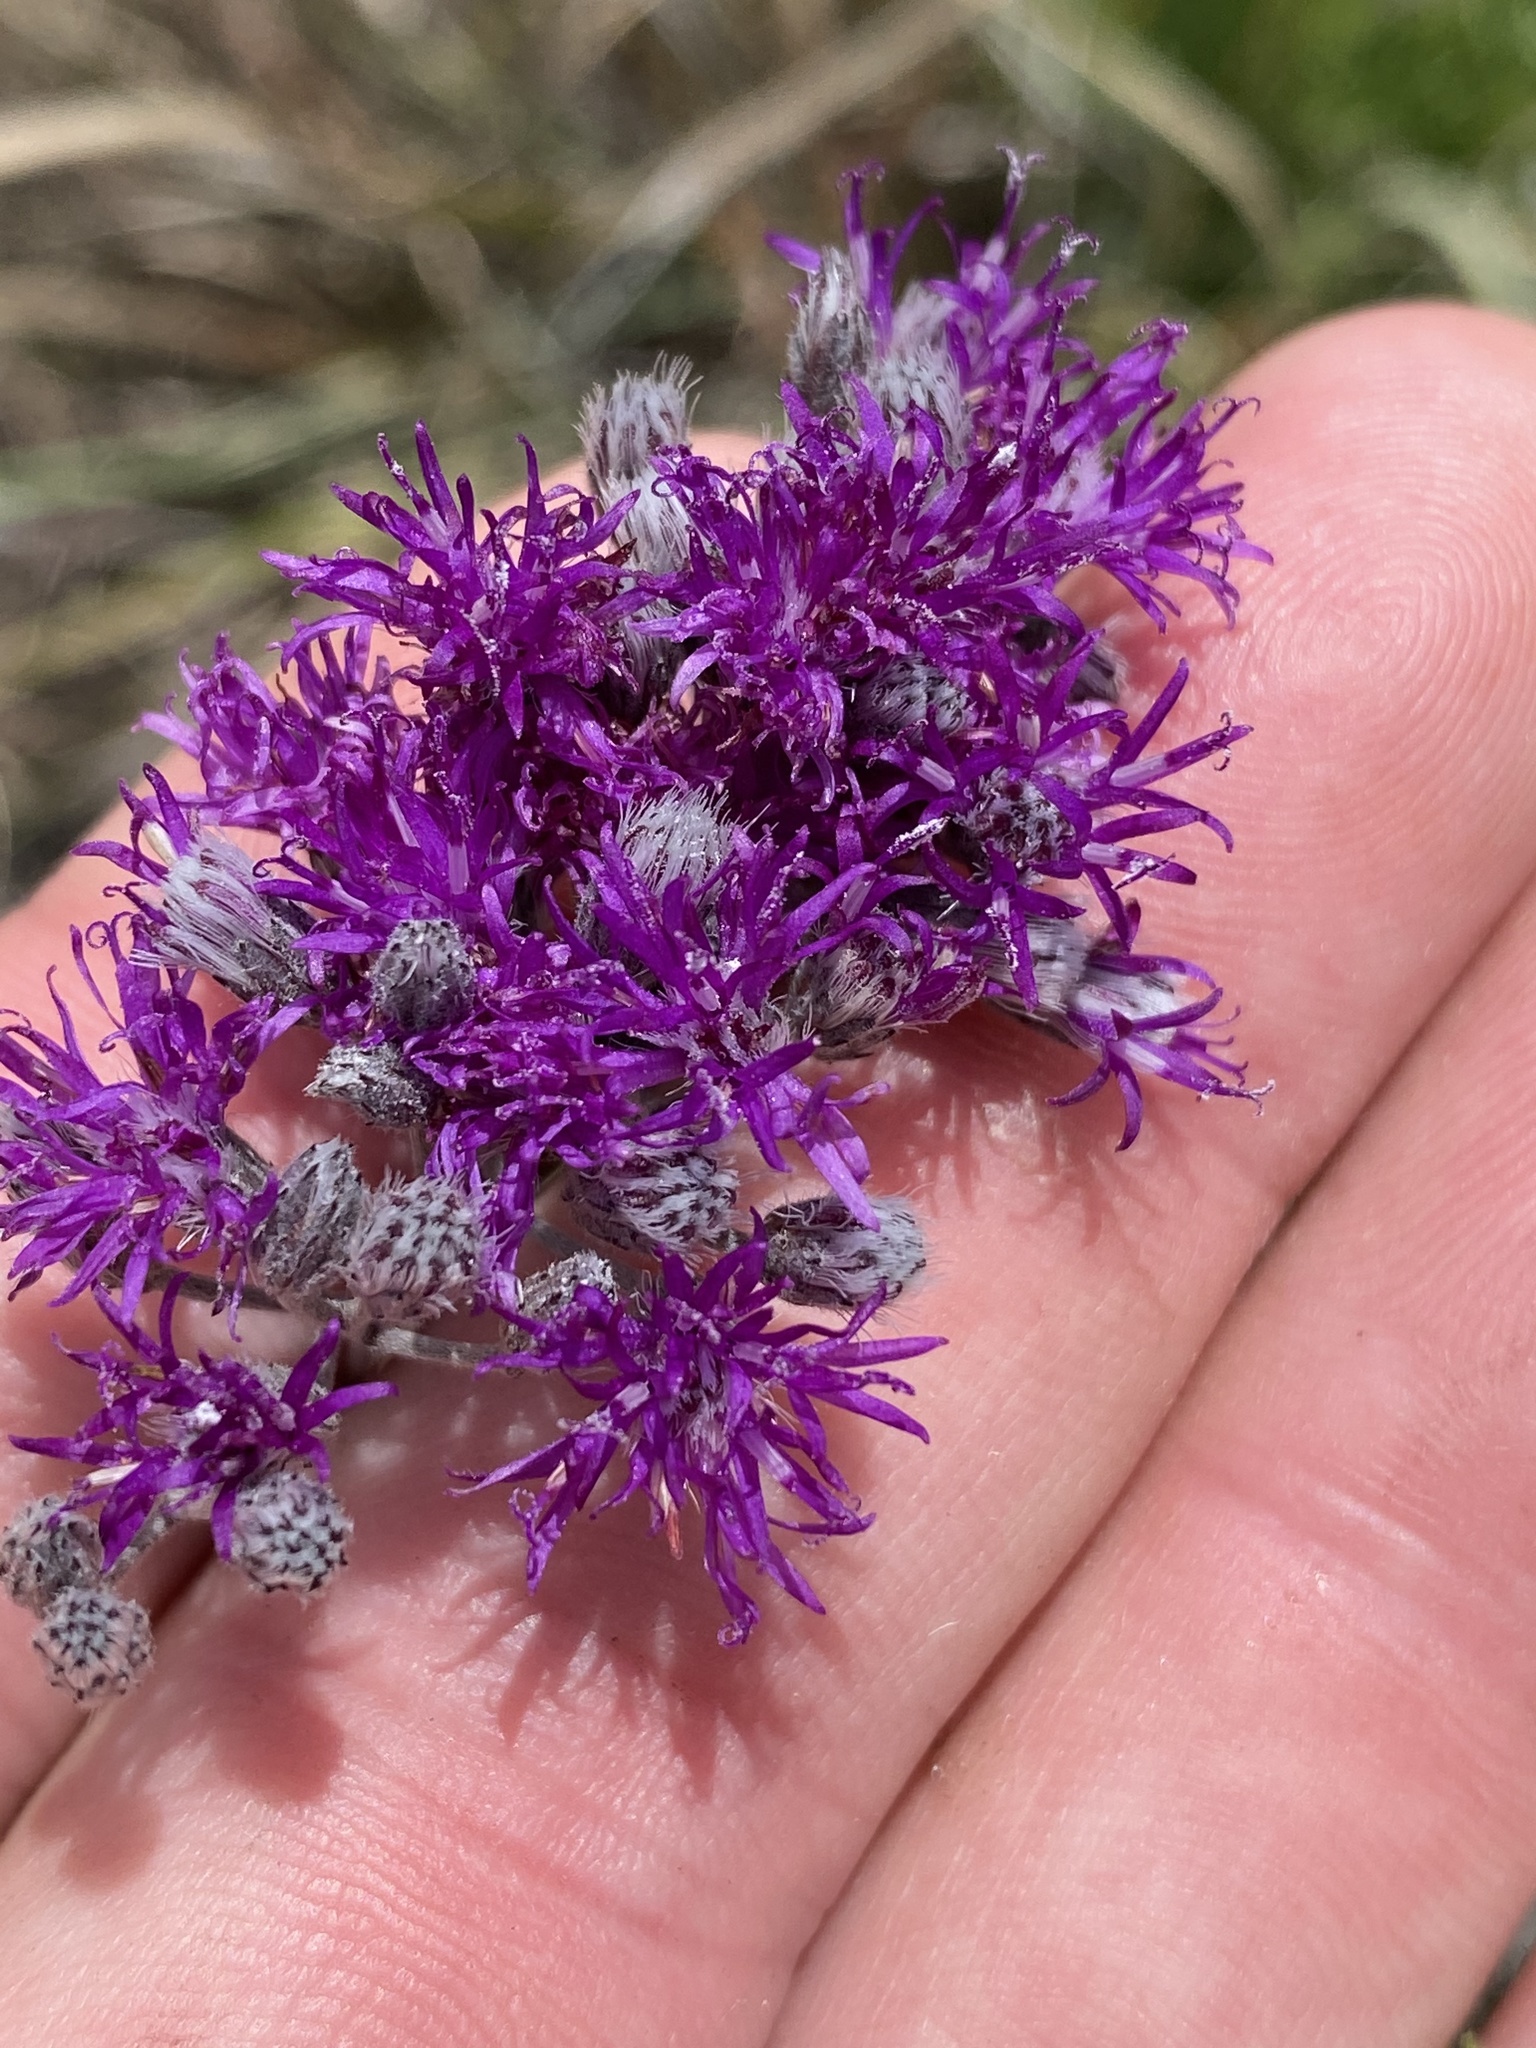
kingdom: Plantae
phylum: Tracheophyta
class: Magnoliopsida
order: Asterales
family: Asteraceae
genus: Hilliardiella
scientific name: Hilliardiella capensis
